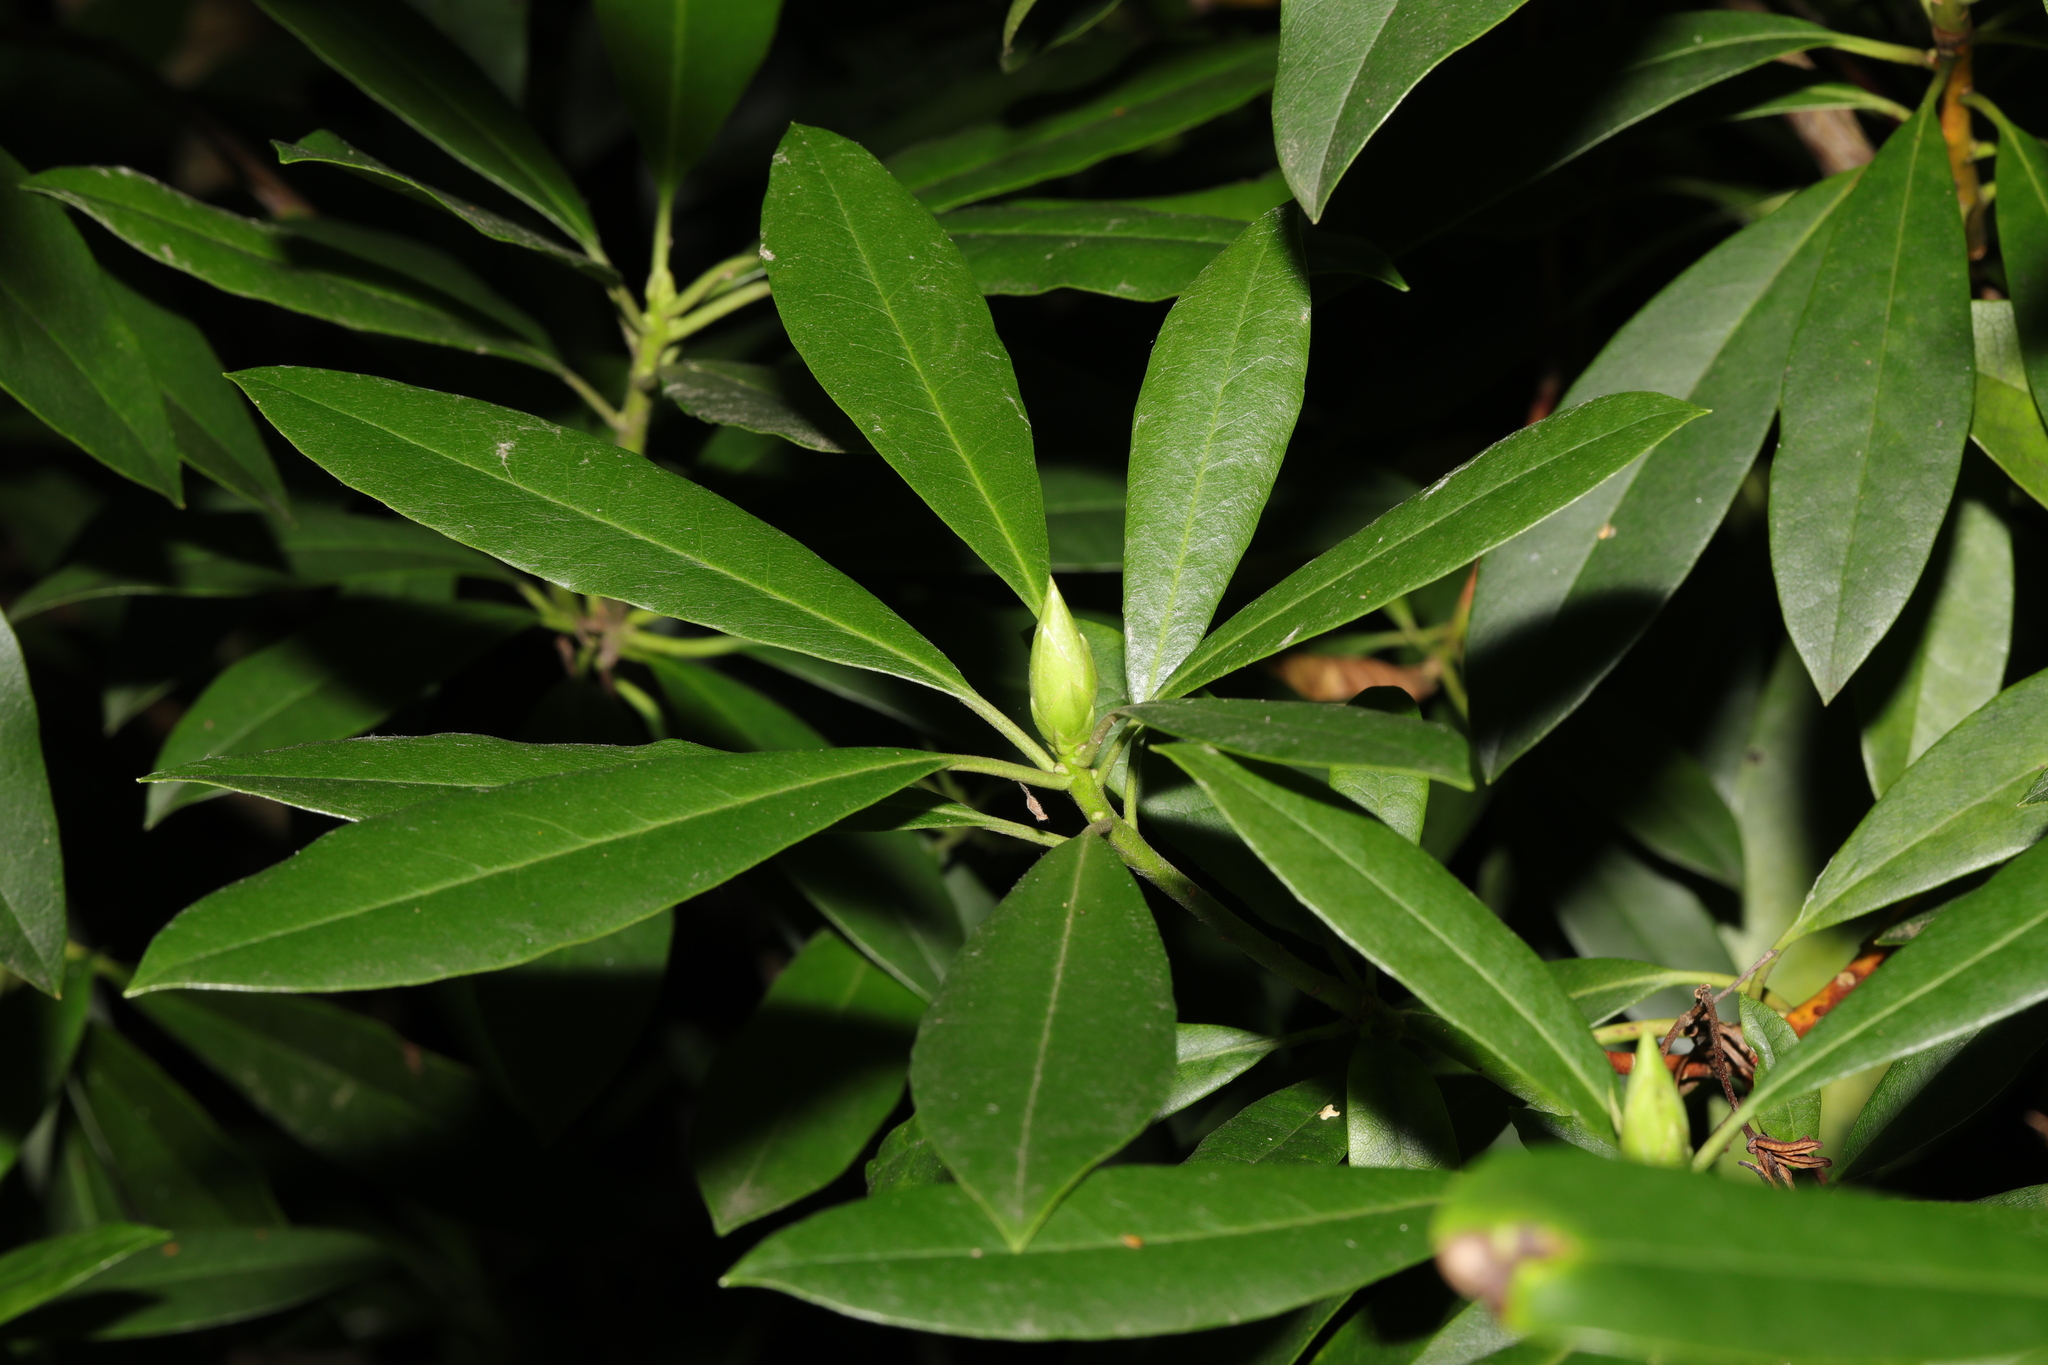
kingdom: Plantae
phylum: Tracheophyta
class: Magnoliopsida
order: Ericales
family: Ericaceae
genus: Rhododendron
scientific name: Rhododendron ponticum
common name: Rhododendron
